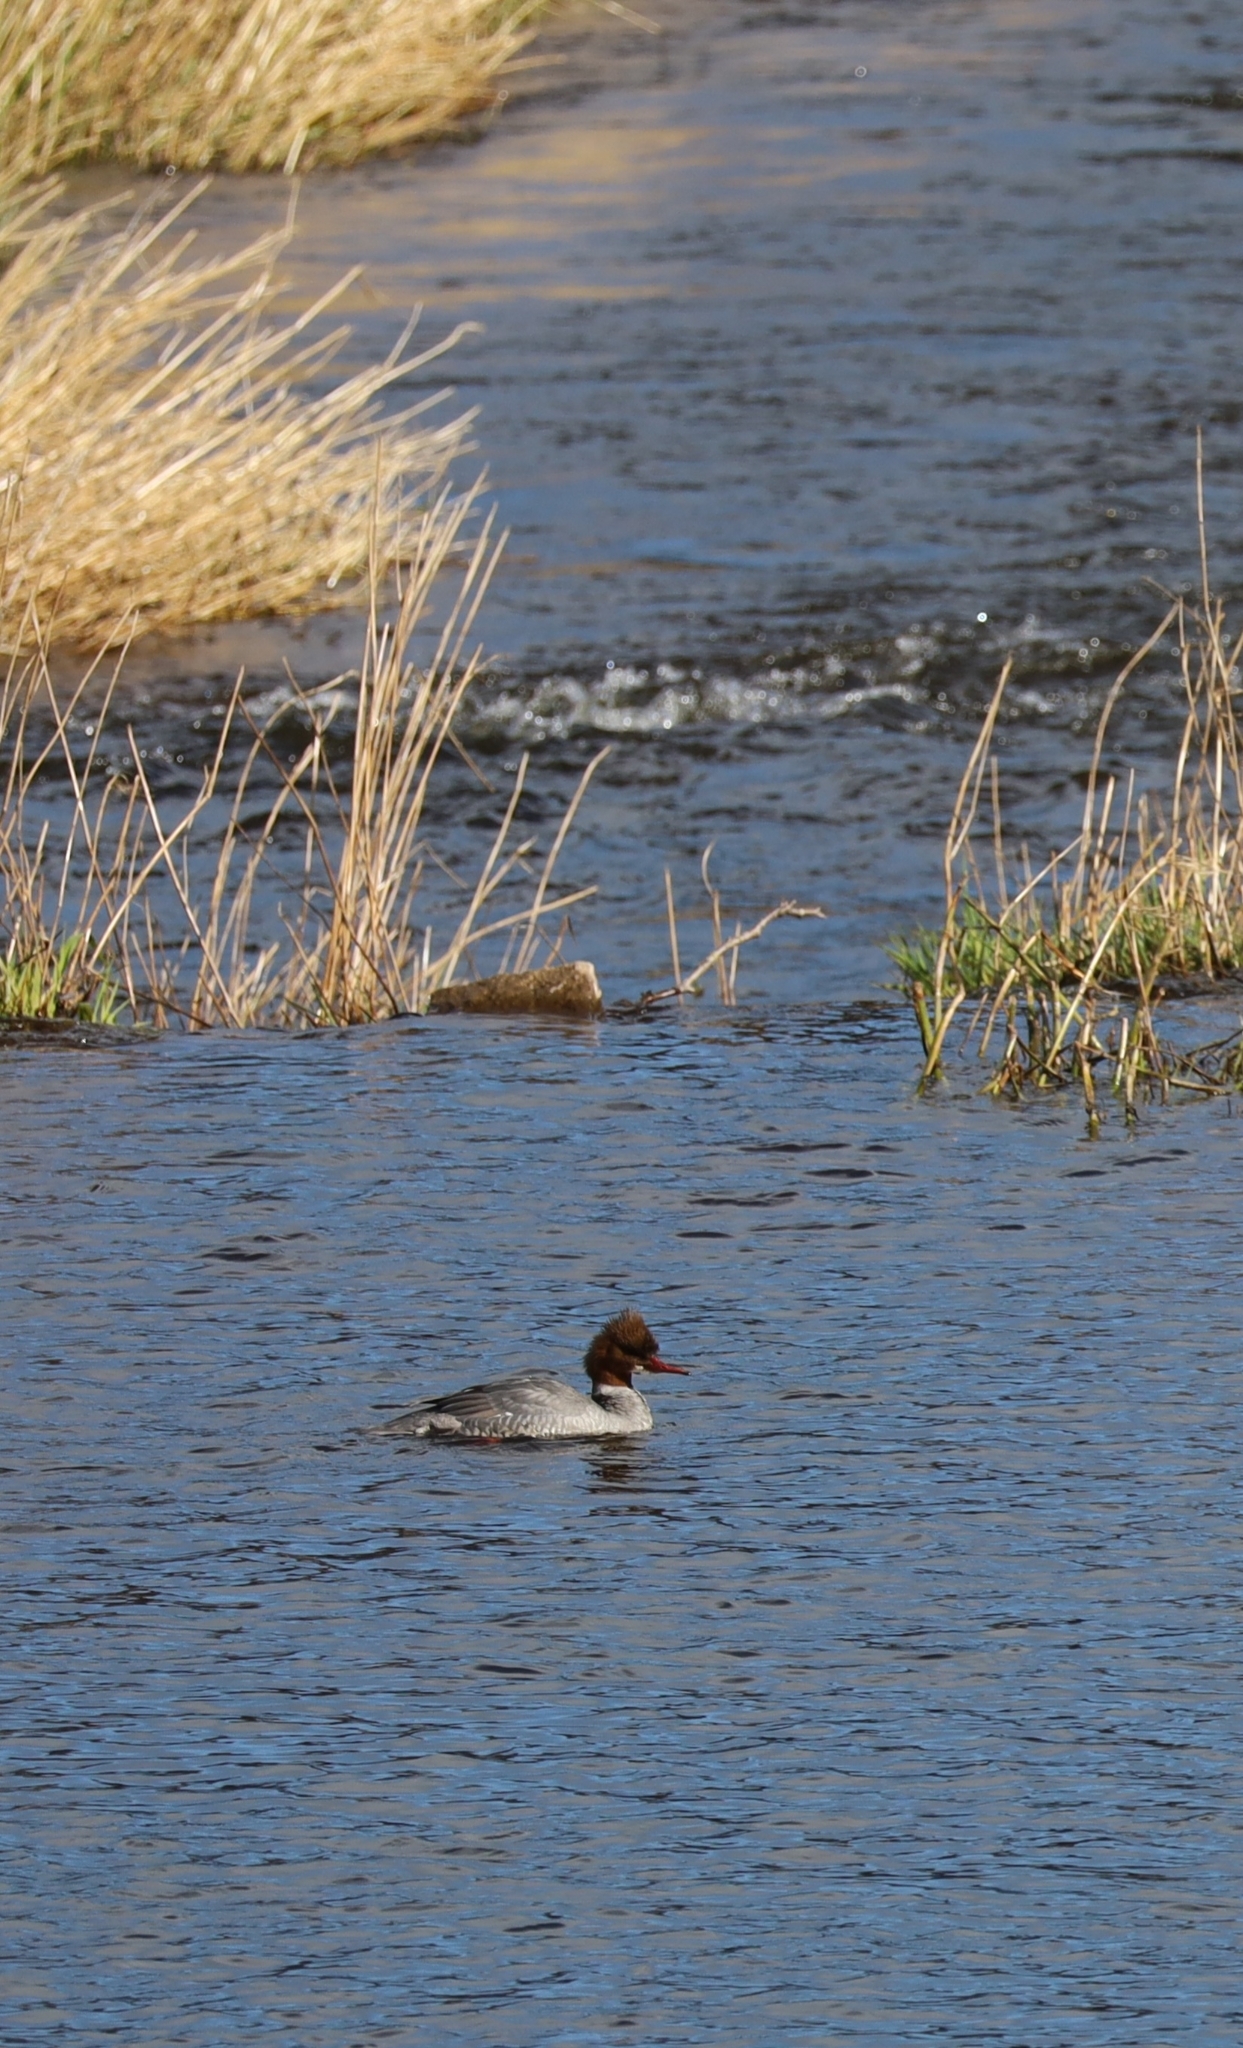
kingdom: Animalia
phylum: Chordata
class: Aves
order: Anseriformes
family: Anatidae
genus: Mergus
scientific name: Mergus merganser
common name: Common merganser
